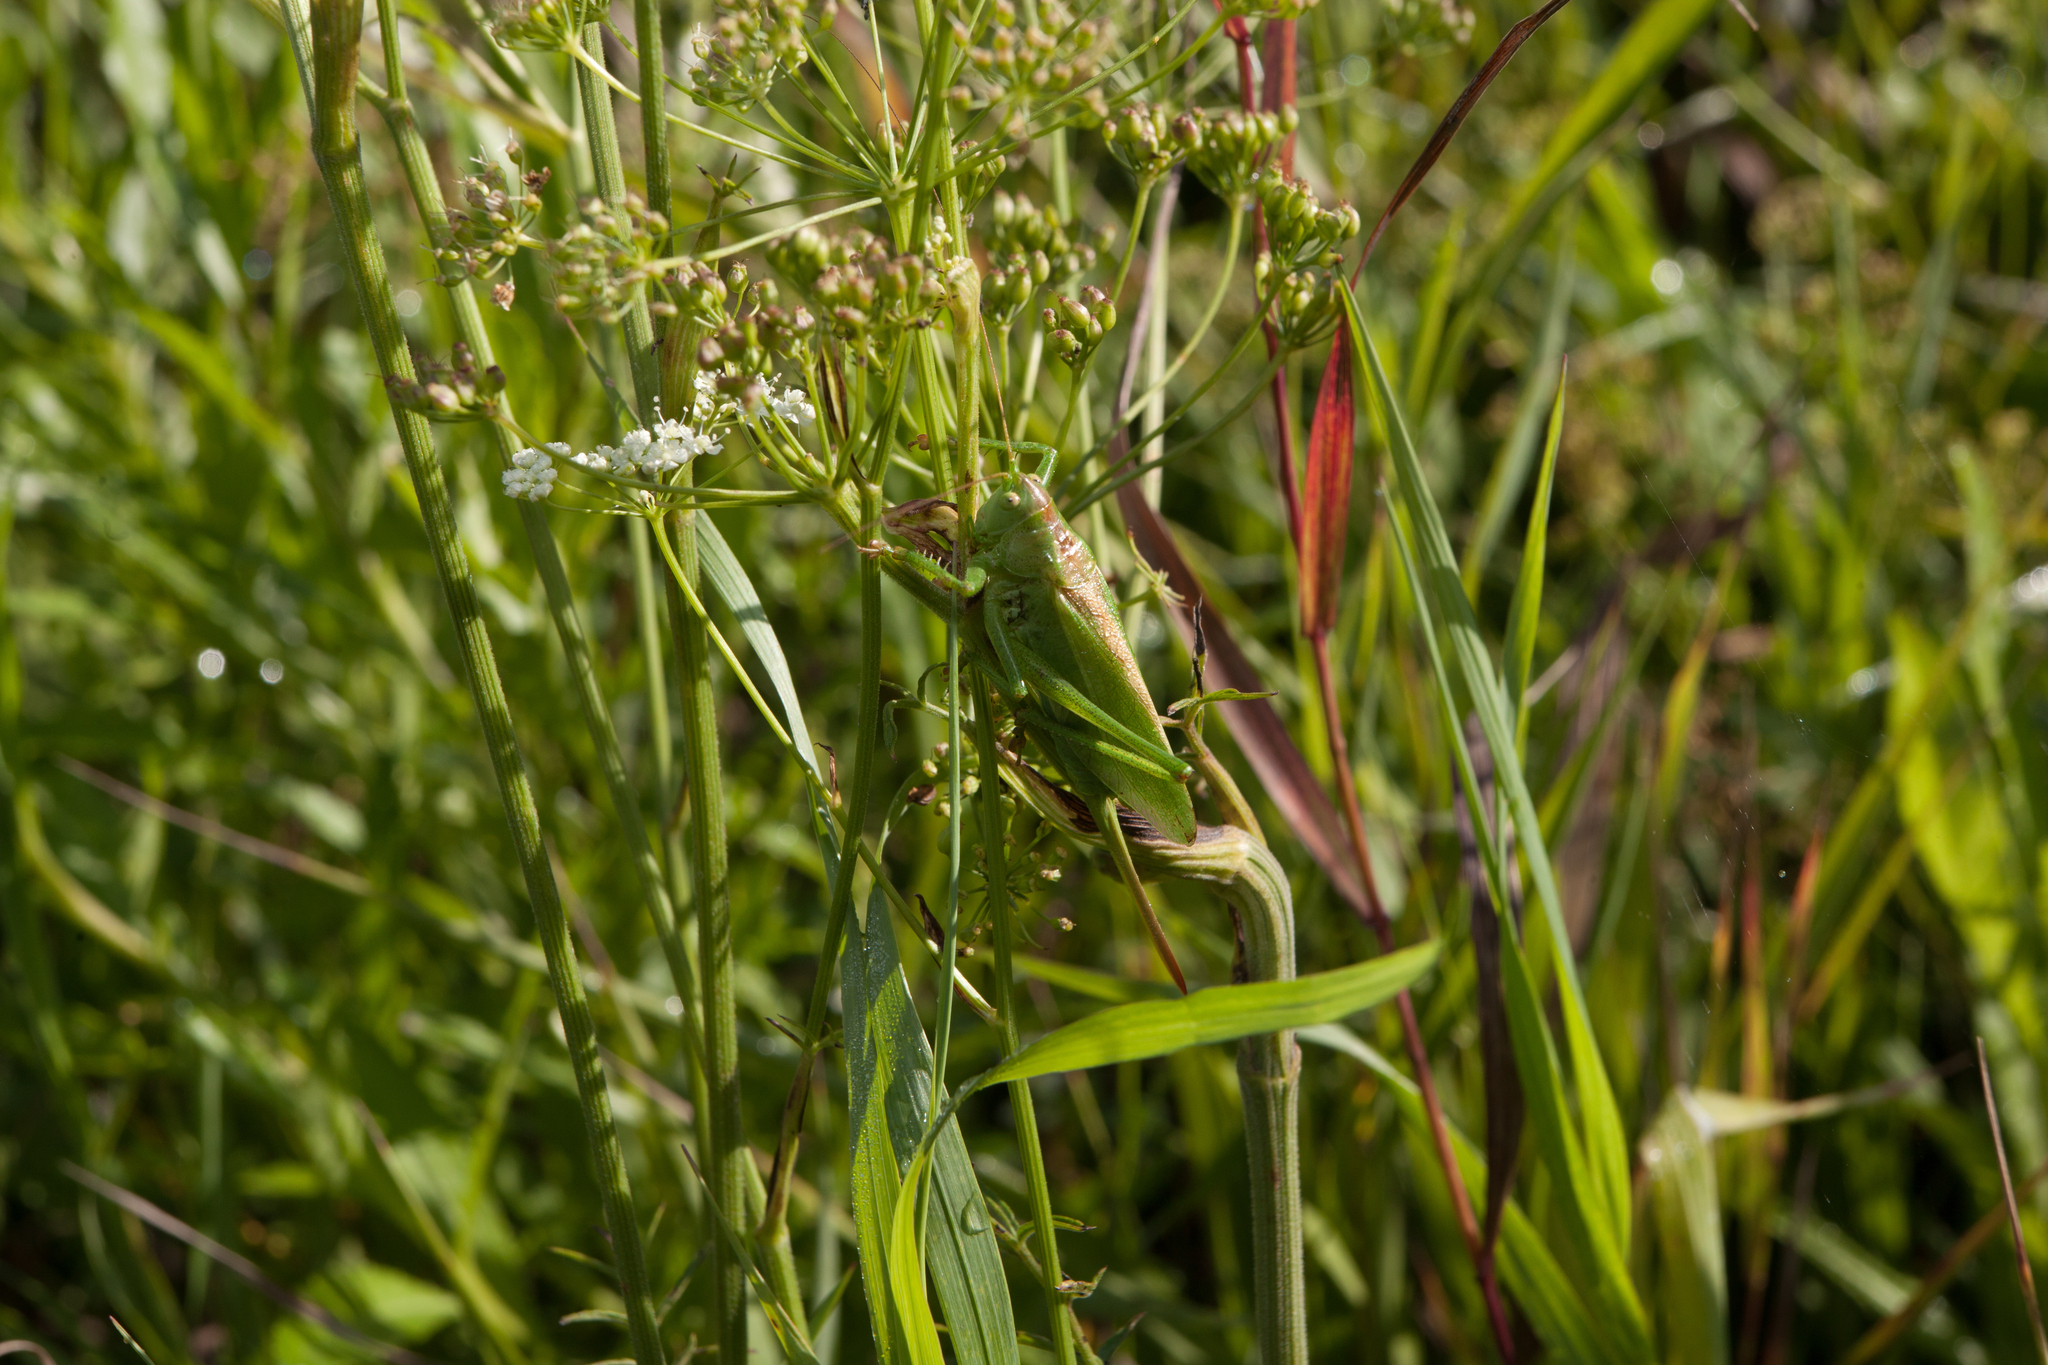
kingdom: Animalia
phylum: Arthropoda
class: Insecta
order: Orthoptera
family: Tettigoniidae
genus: Tettigonia
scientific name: Tettigonia cantans
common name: Upland green bush-cricket
